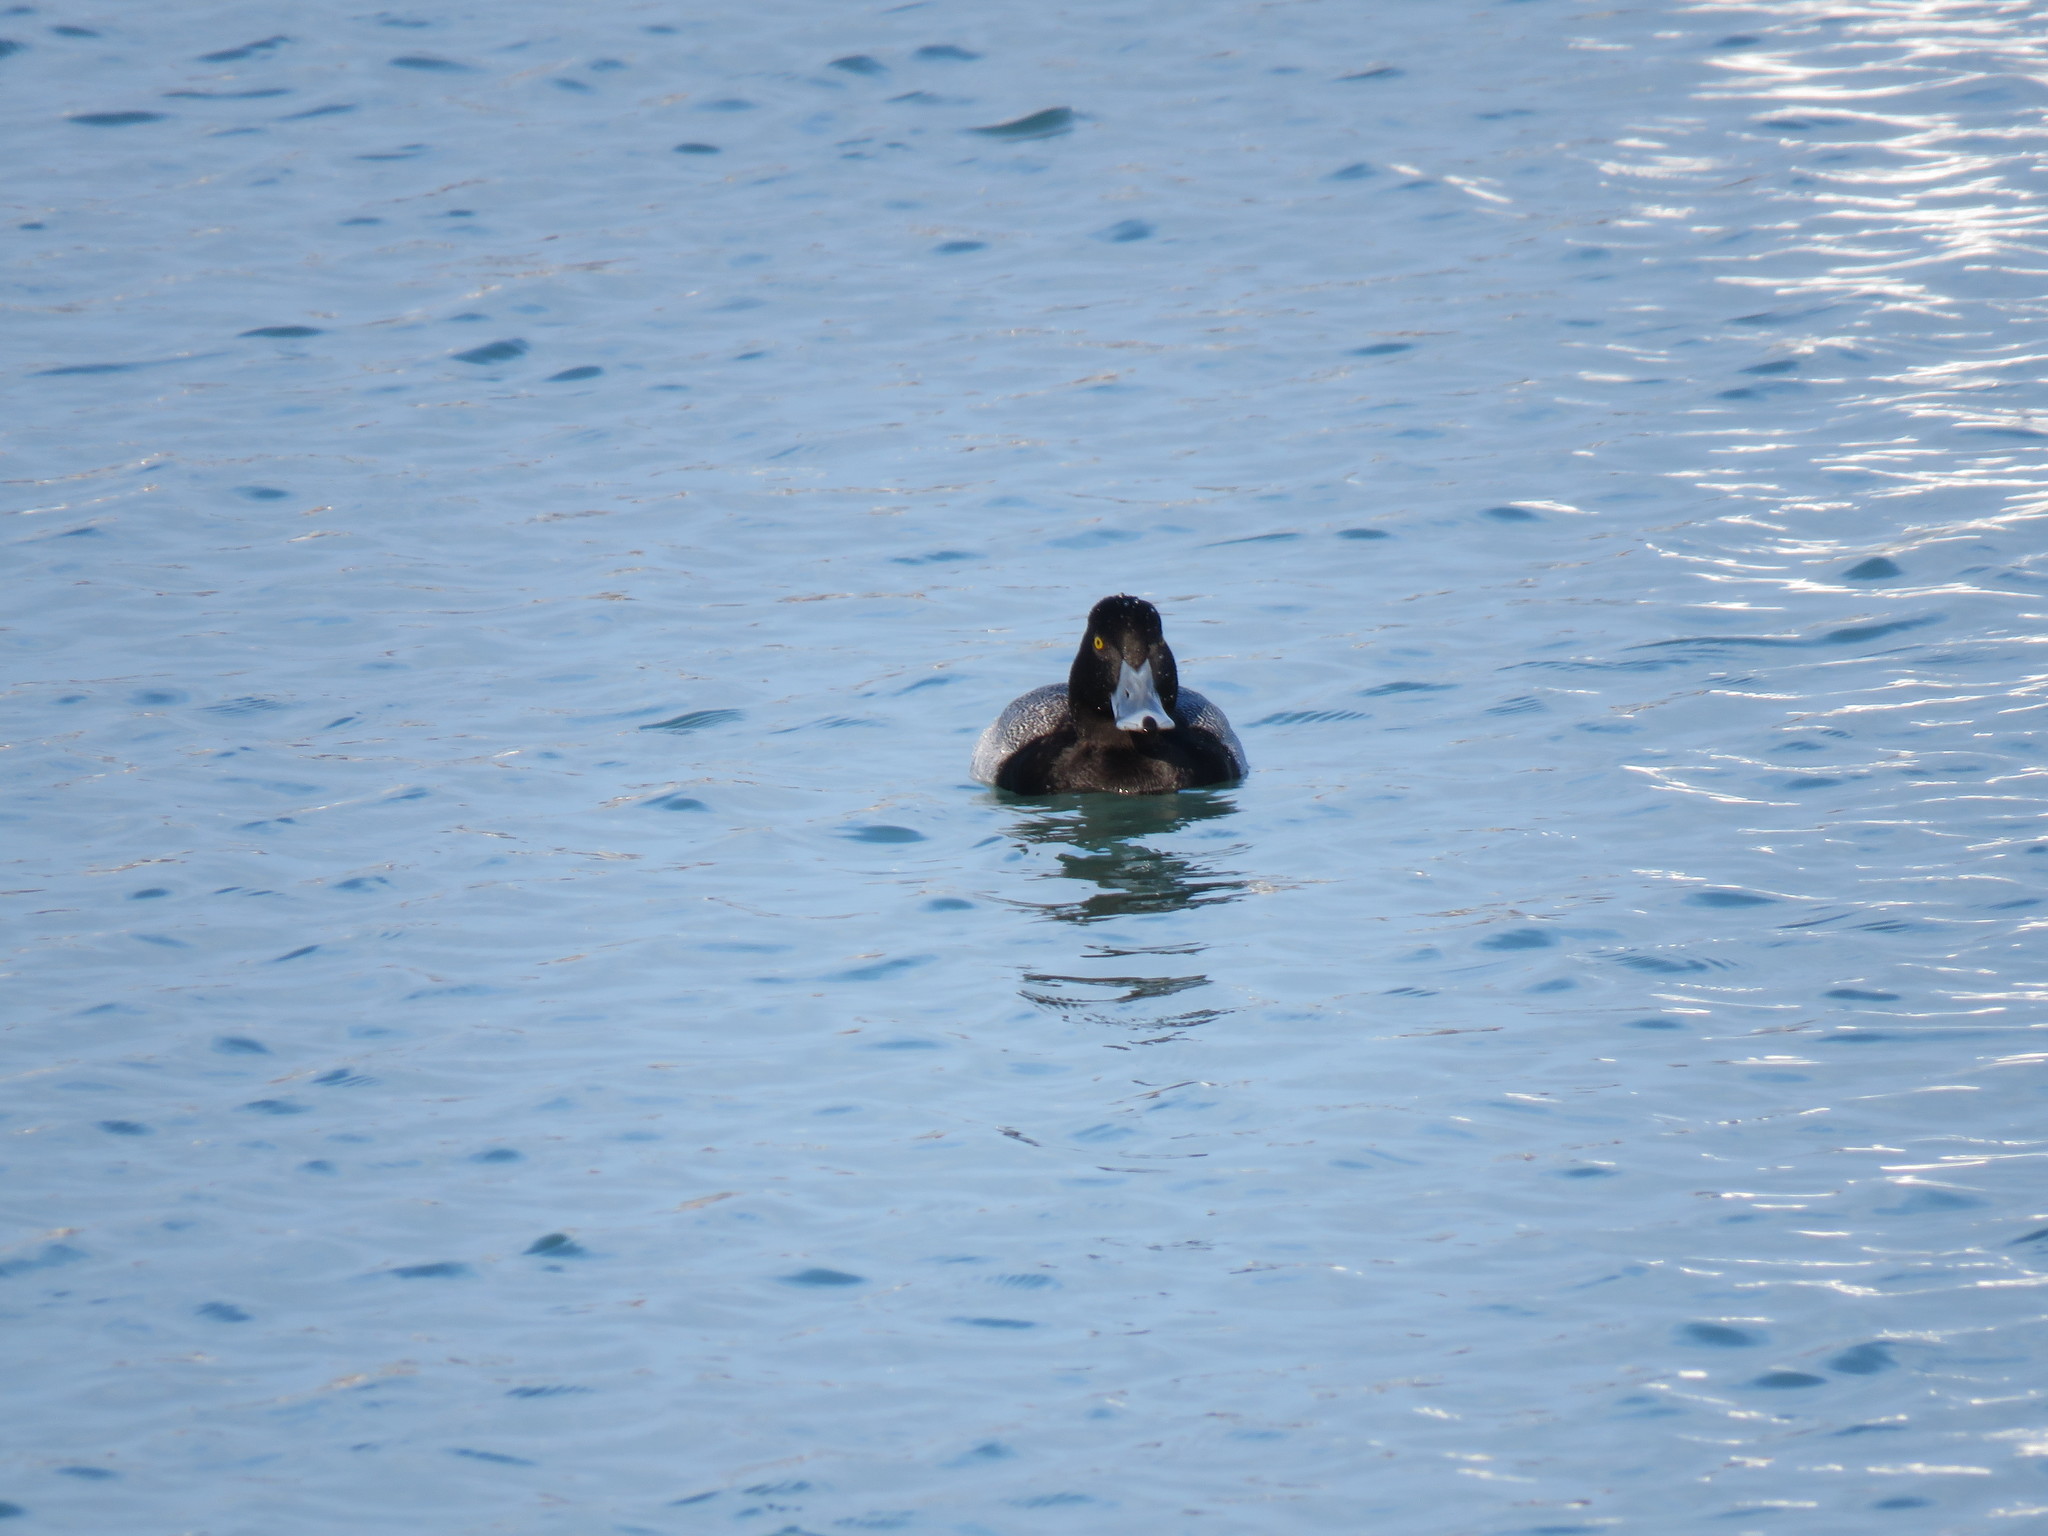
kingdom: Animalia
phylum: Chordata
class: Aves
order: Anseriformes
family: Anatidae
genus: Aythya
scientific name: Aythya affinis
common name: Lesser scaup
